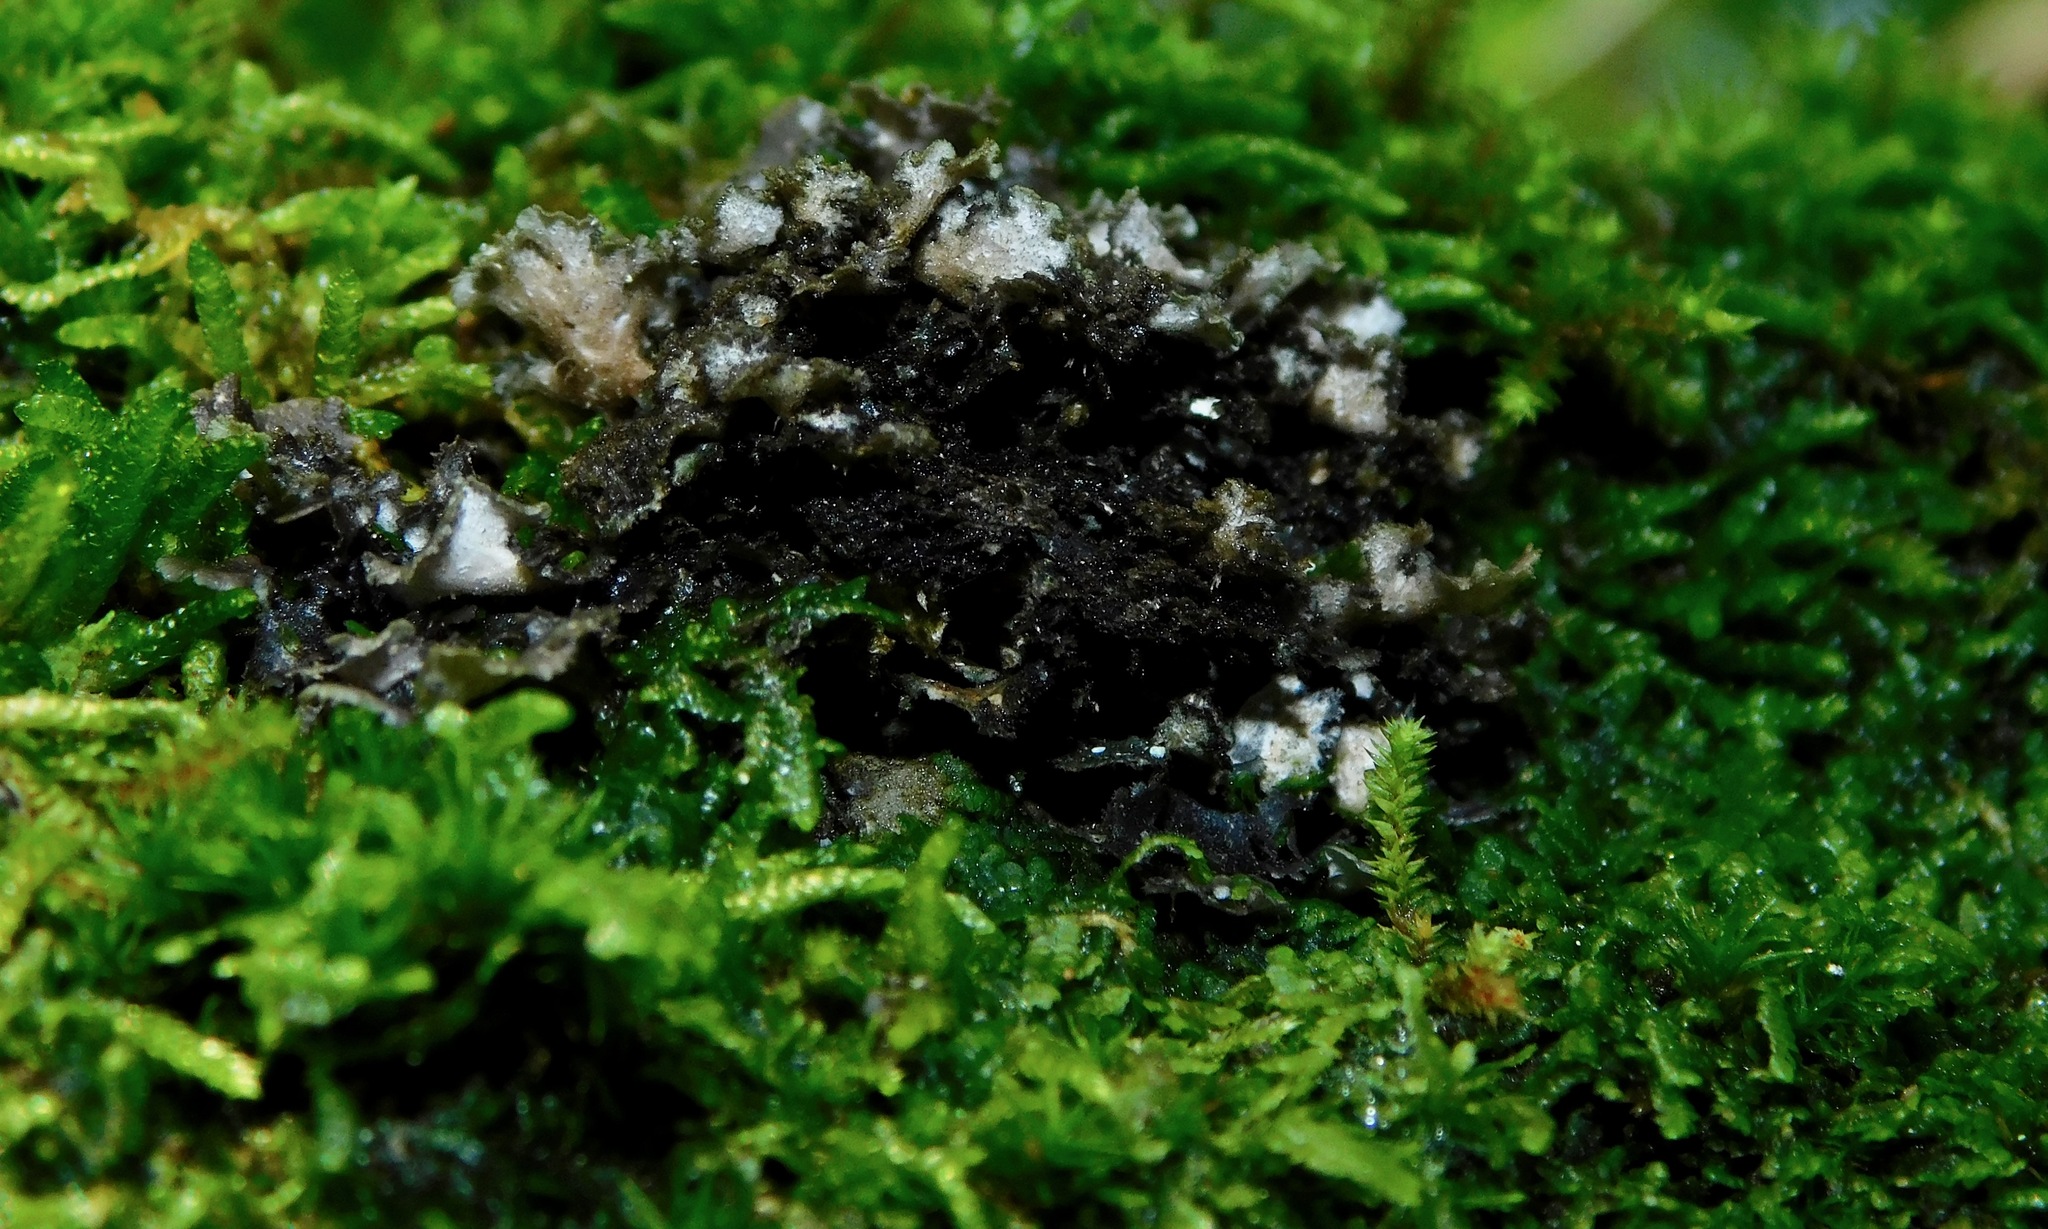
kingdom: Fungi
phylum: Ascomycota
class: Lecanoromycetes
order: Peltigerales
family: Lobariaceae
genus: Sticta
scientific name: Sticta carolinensis
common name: Carolina moon lichen
